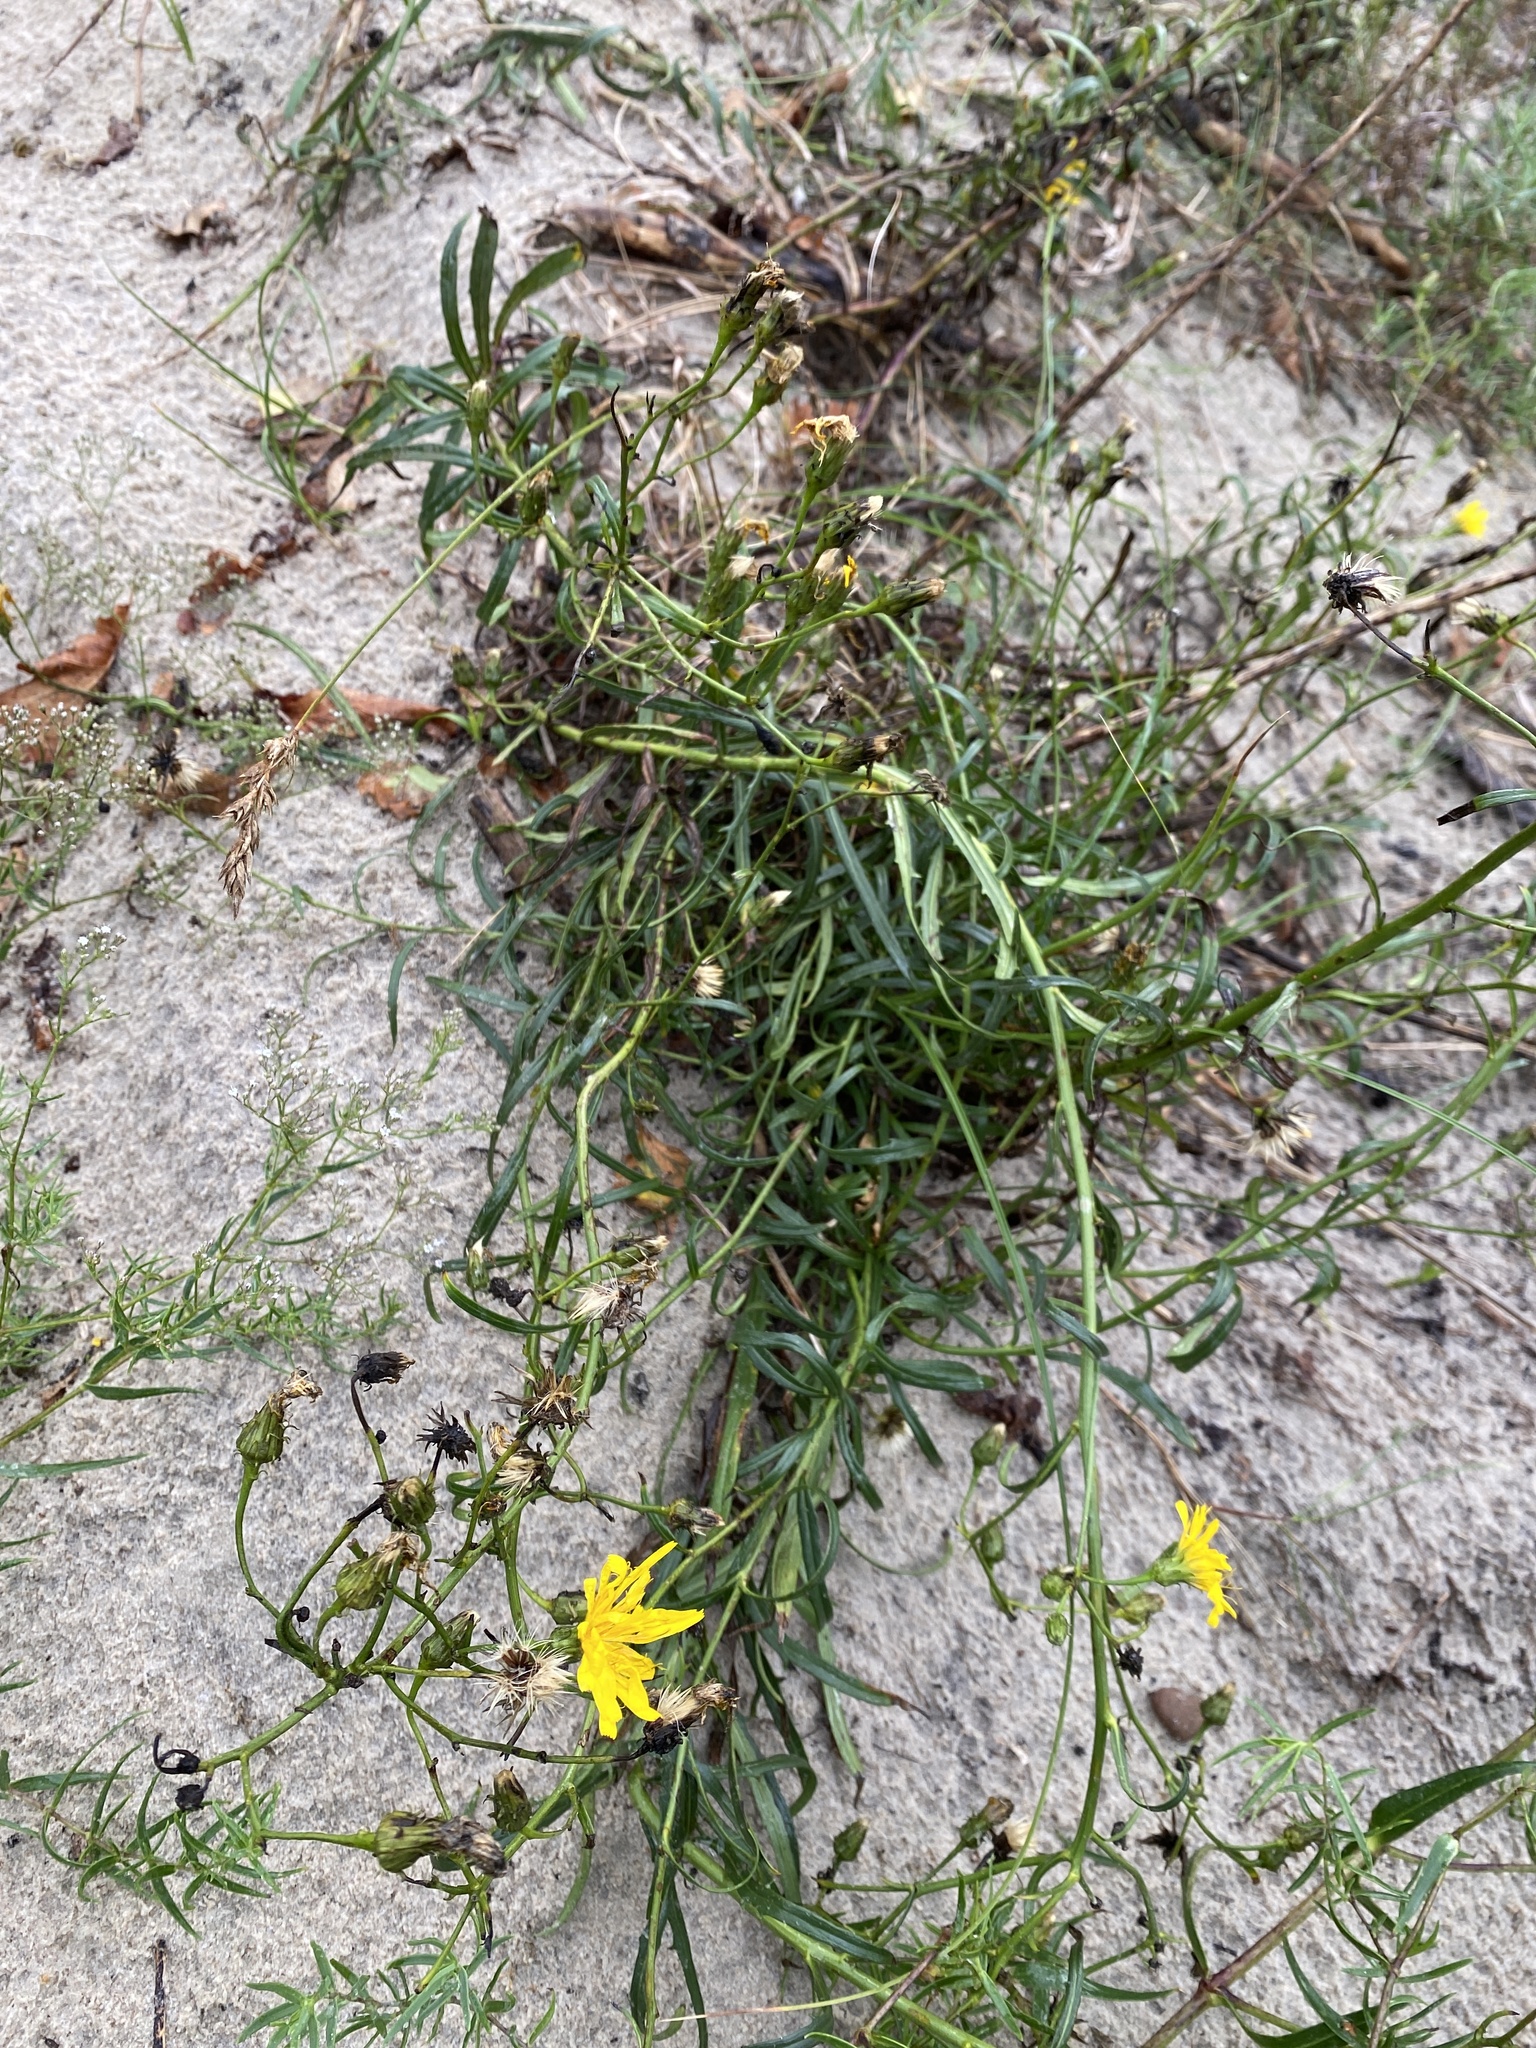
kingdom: Plantae
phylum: Tracheophyta
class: Magnoliopsida
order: Asterales
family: Asteraceae
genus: Hieracium
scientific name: Hieracium umbellatum
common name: Northern hawkweed
